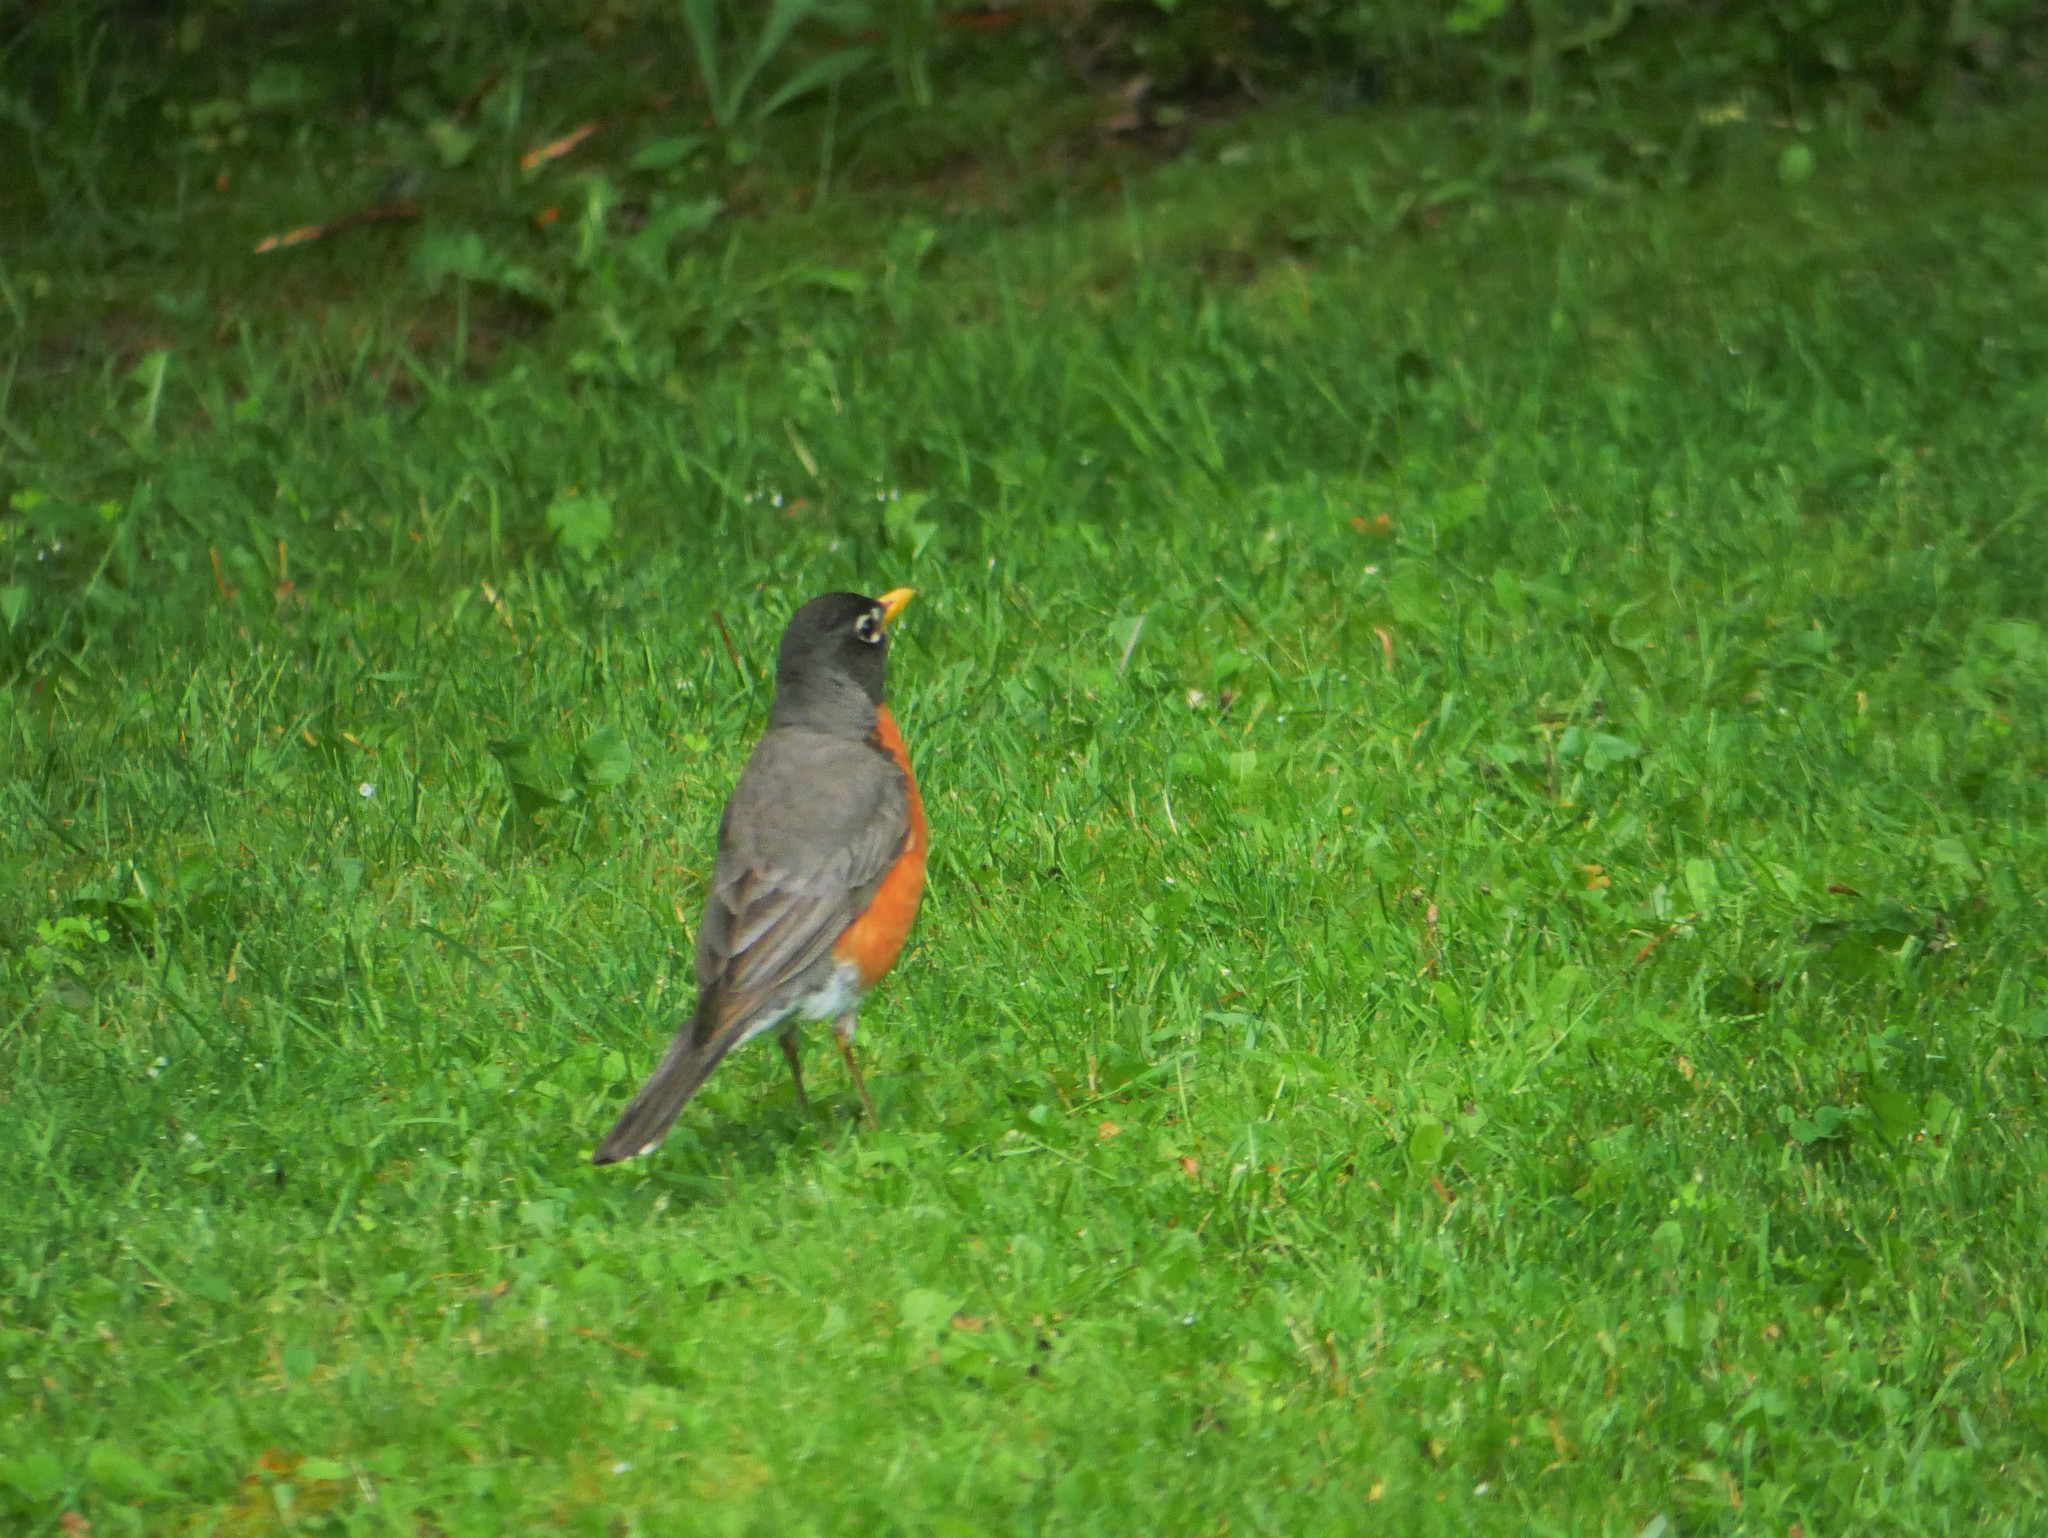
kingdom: Animalia
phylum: Chordata
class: Aves
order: Passeriformes
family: Turdidae
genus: Turdus
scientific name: Turdus migratorius
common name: American robin
